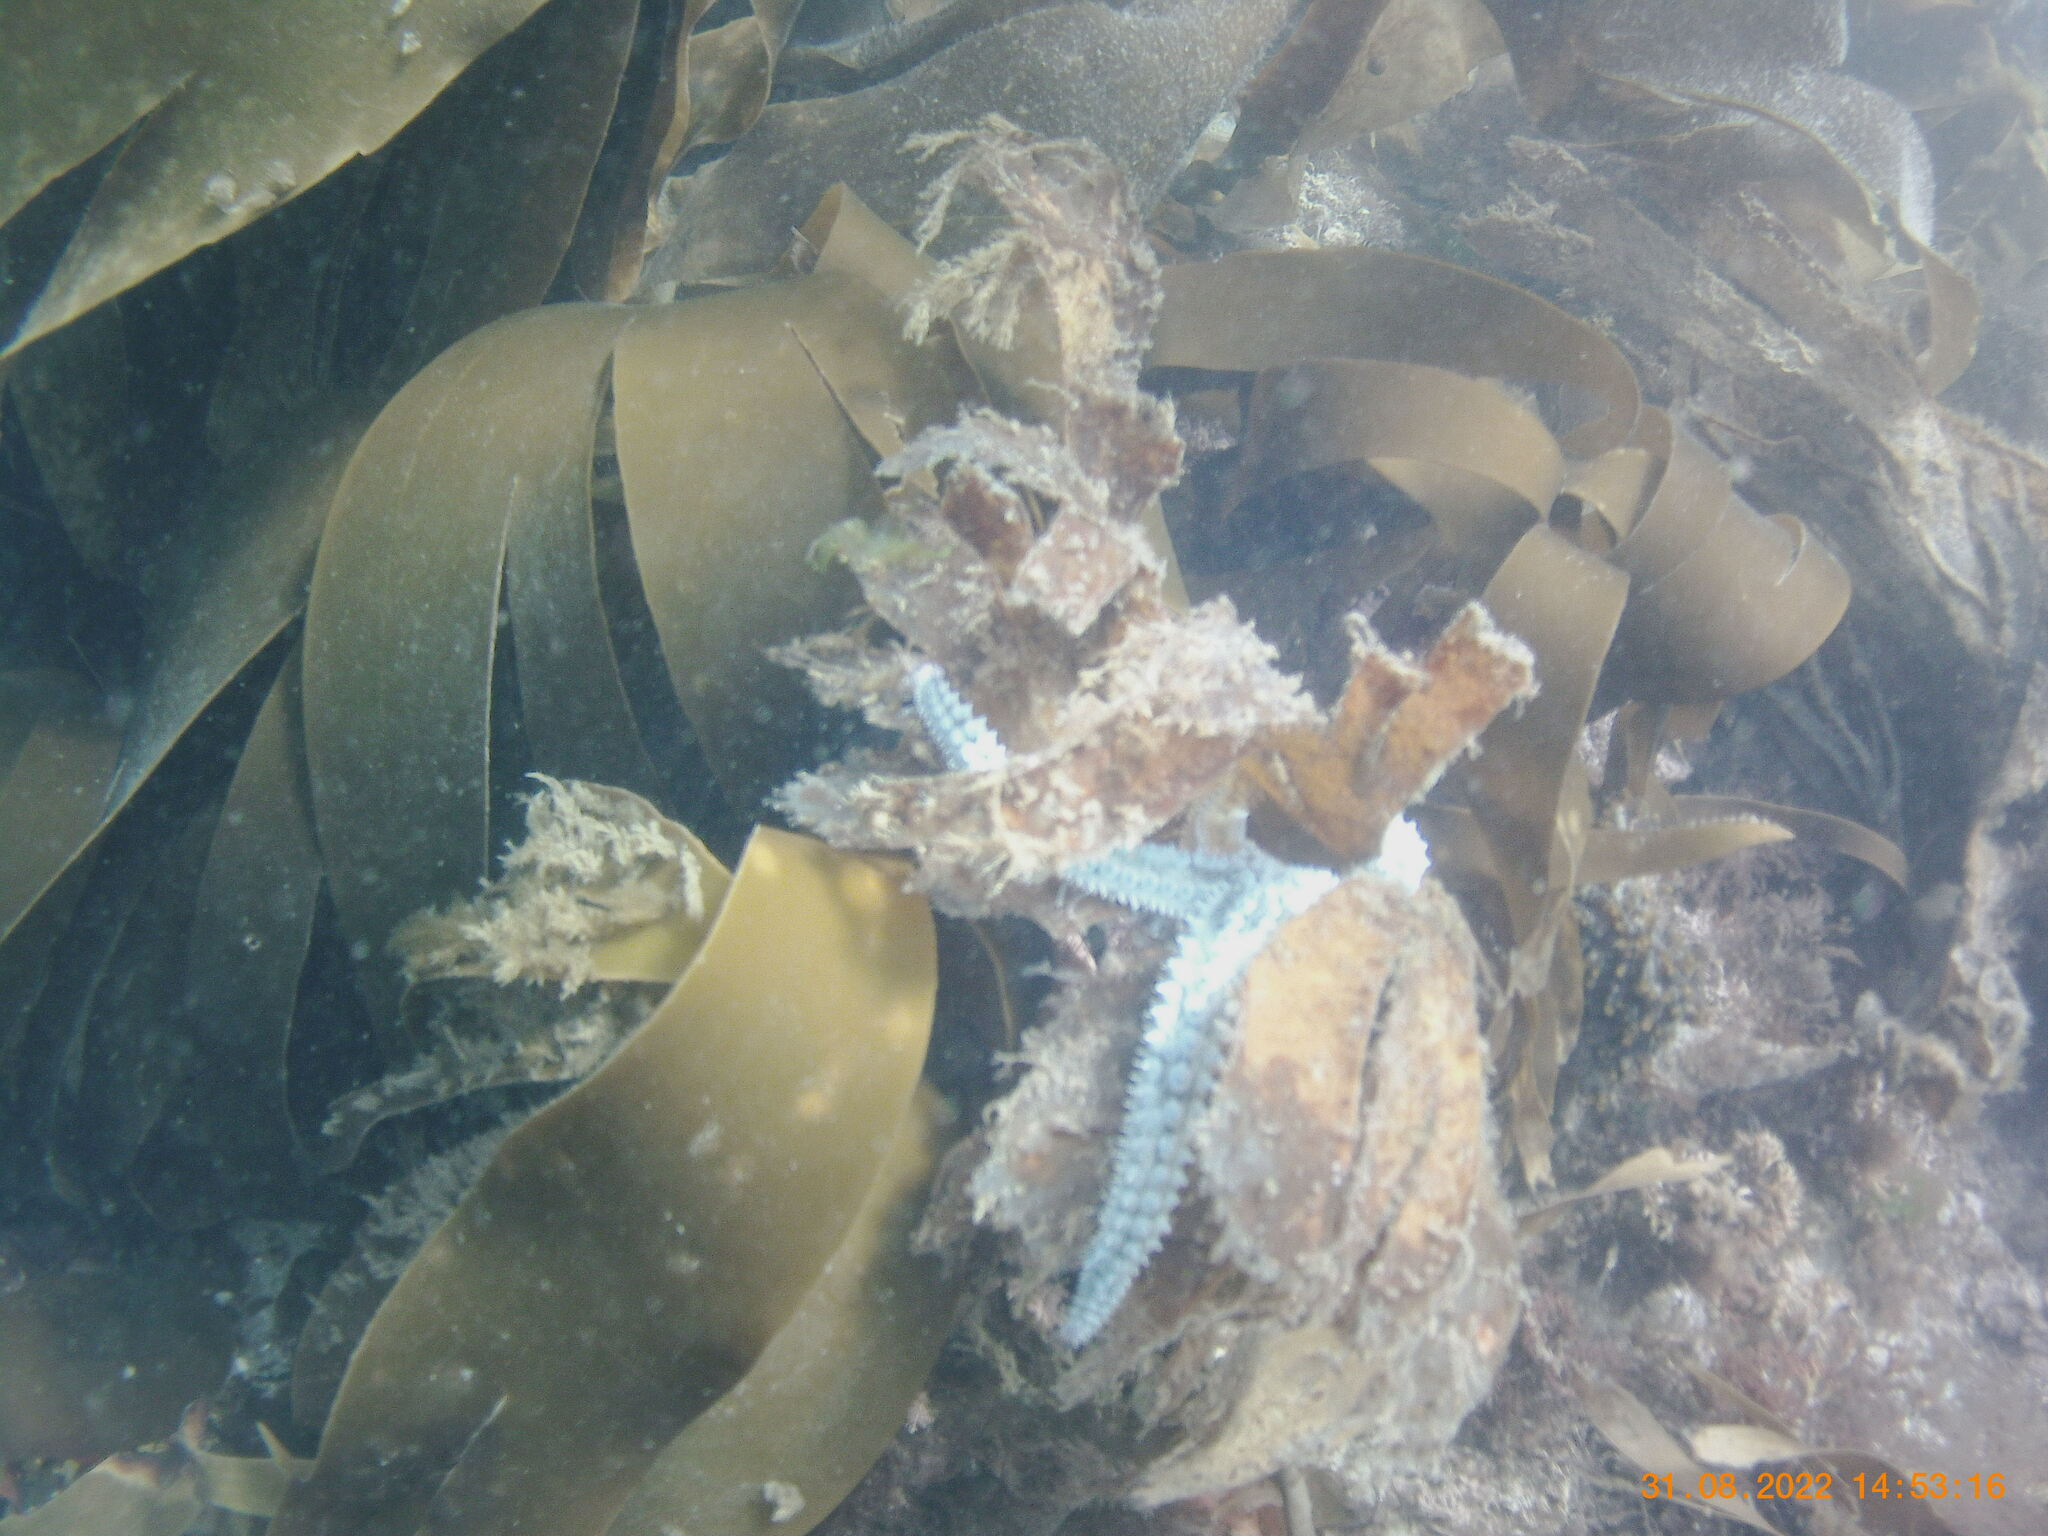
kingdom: Animalia
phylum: Echinodermata
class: Asteroidea
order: Forcipulatida
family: Asteriidae
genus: Marthasterias
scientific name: Marthasterias glacialis
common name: Spiny starfish
